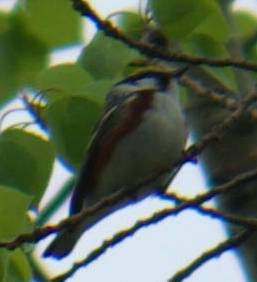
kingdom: Animalia
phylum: Chordata
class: Aves
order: Passeriformes
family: Parulidae
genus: Setophaga
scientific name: Setophaga pensylvanica
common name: Chestnut-sided warbler
